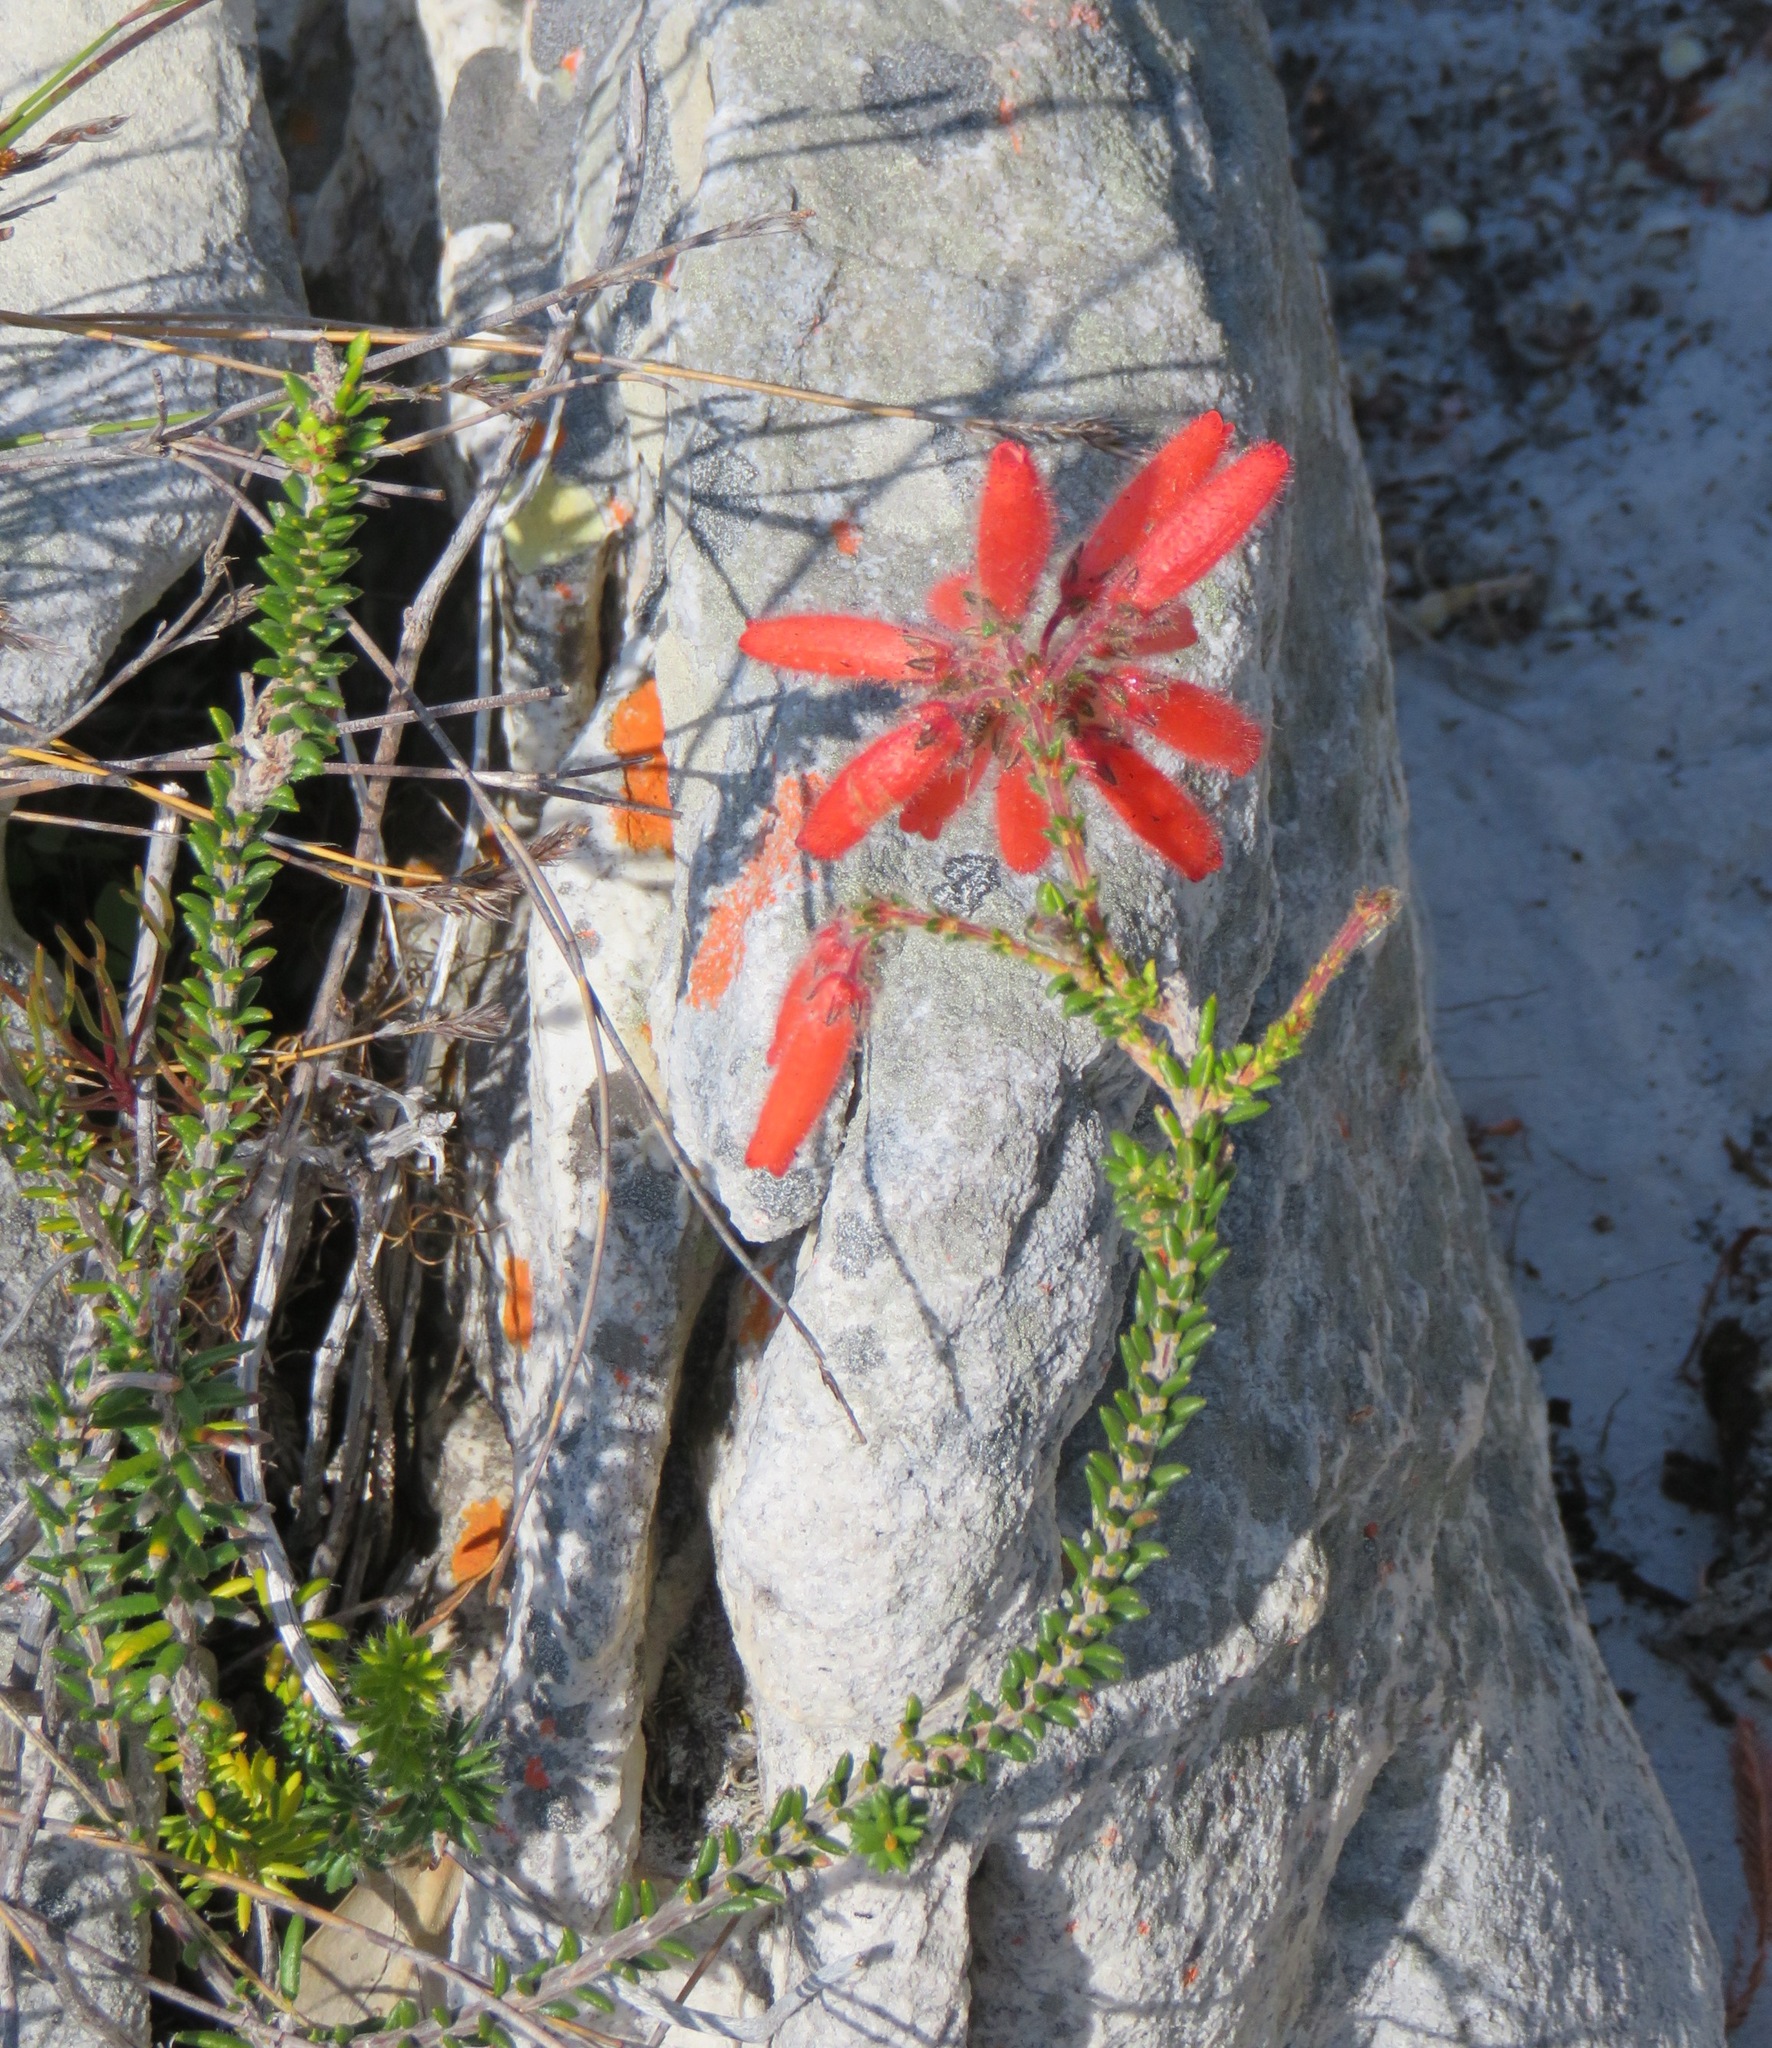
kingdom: Plantae
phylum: Tracheophyta
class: Magnoliopsida
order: Ericales
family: Ericaceae
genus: Erica
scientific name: Erica cerinthoides
